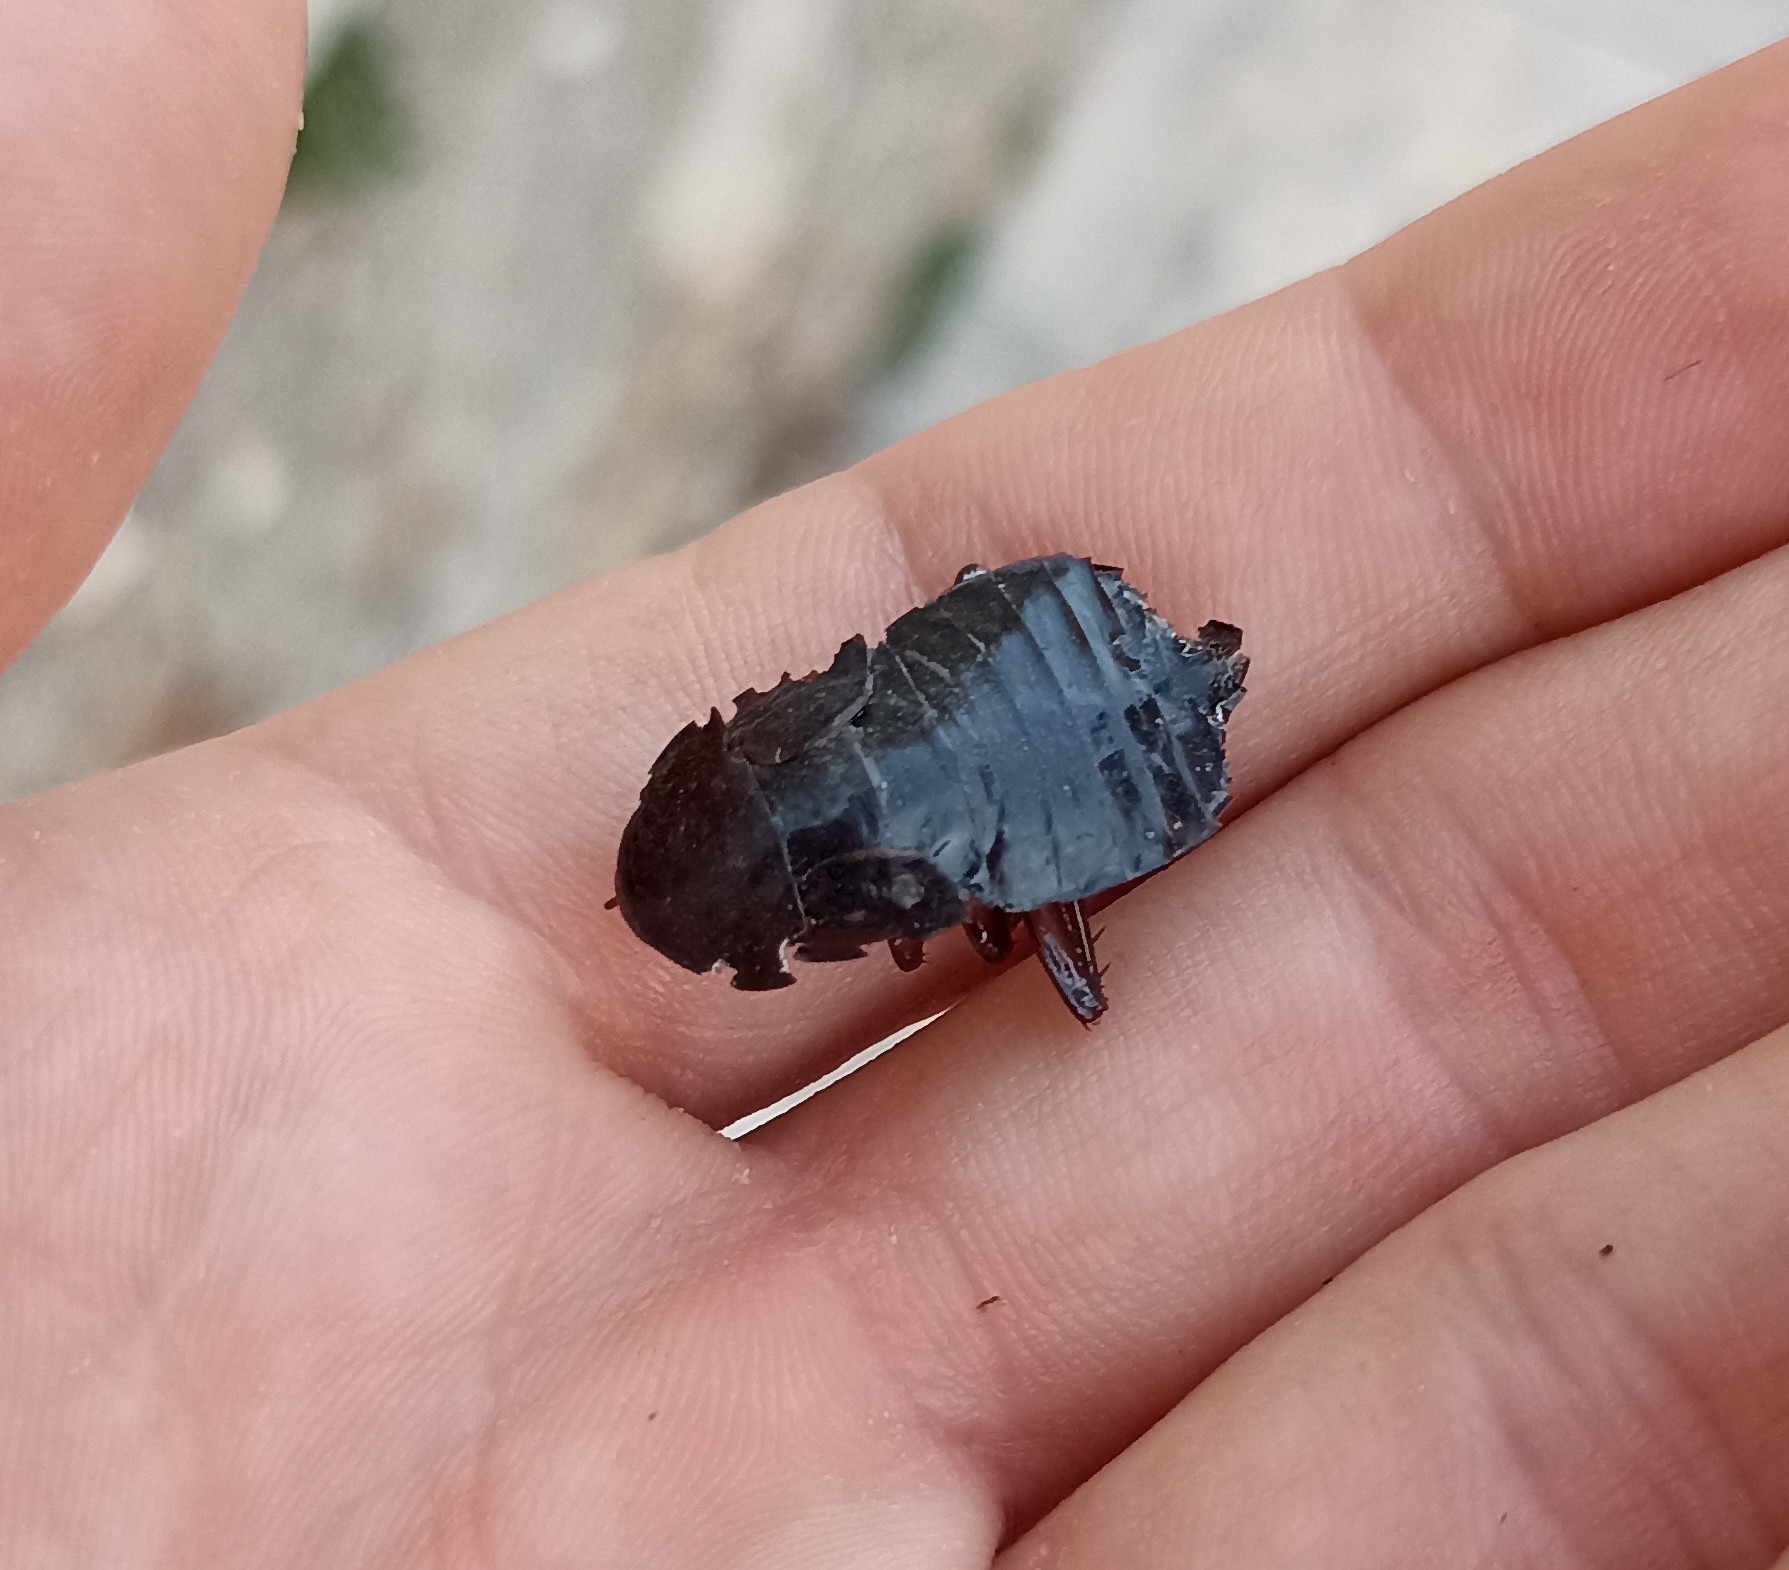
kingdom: Animalia
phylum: Arthropoda
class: Insecta
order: Blattodea
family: Blattidae
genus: Blatta
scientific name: Blatta orientalis
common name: Oriental cockroach
